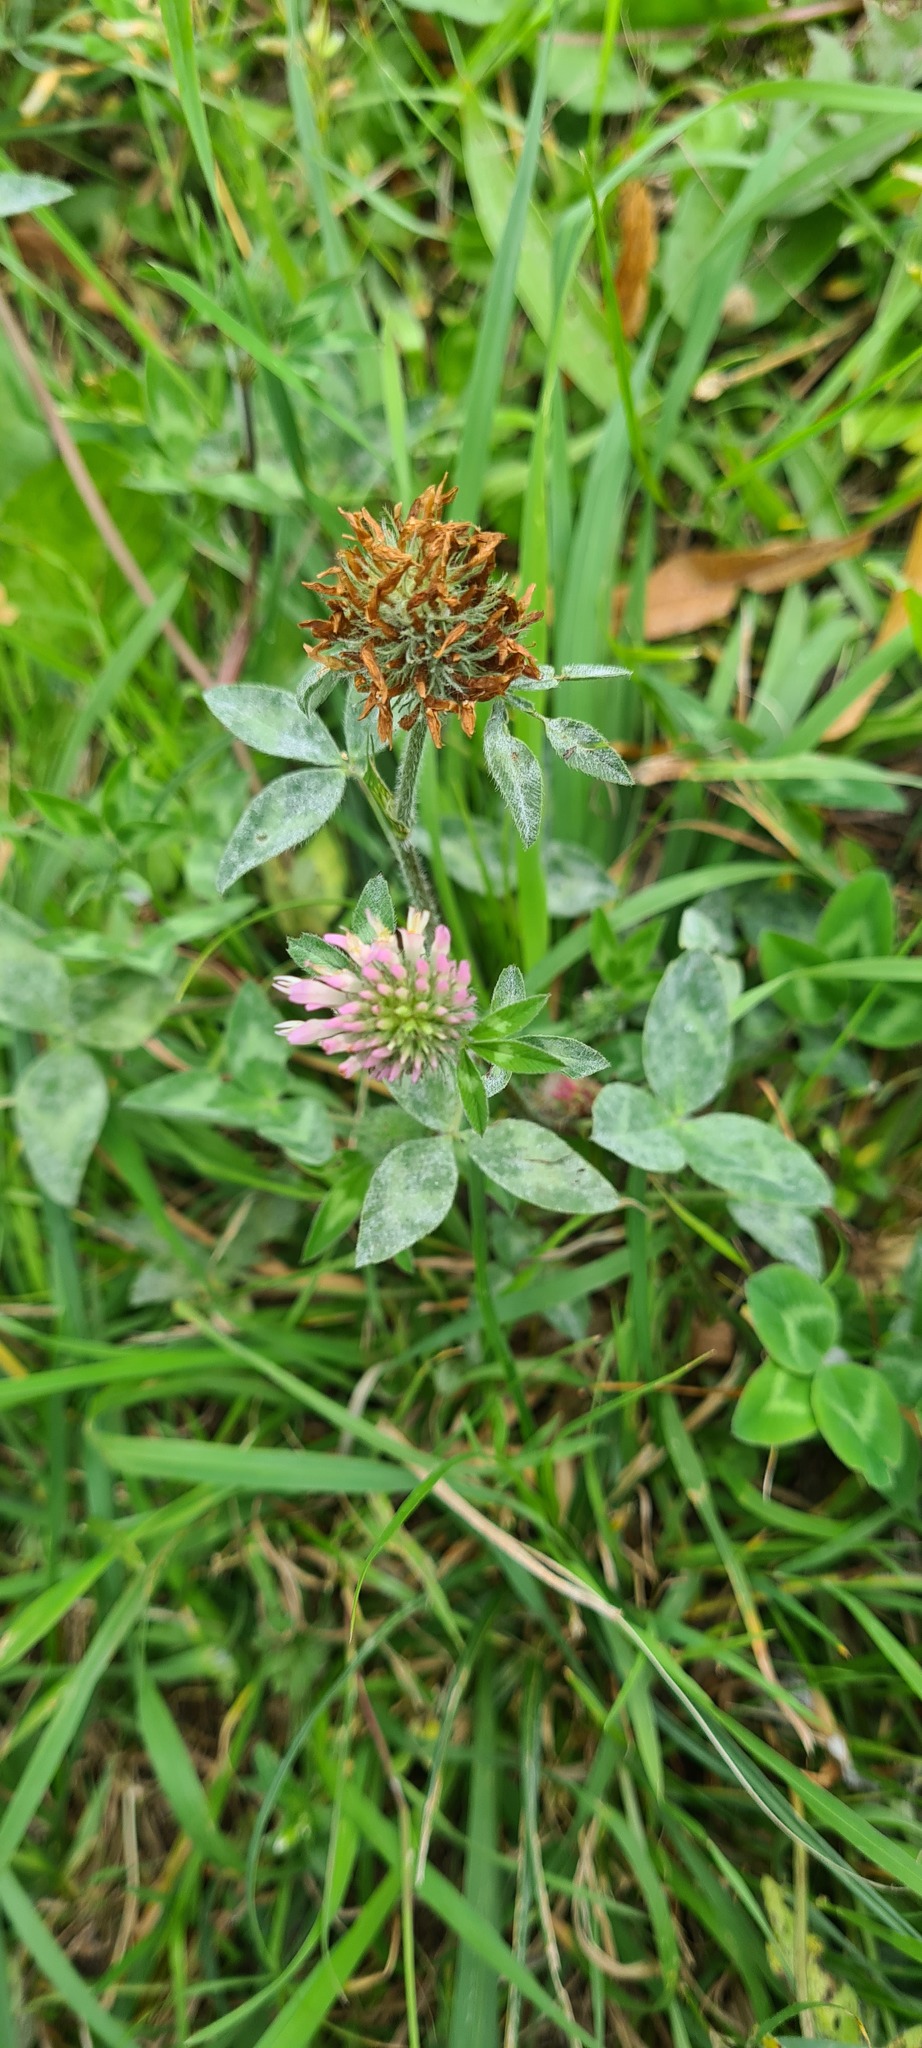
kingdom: Plantae
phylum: Tracheophyta
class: Magnoliopsida
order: Fabales
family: Fabaceae
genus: Trifolium
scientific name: Trifolium pratense
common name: Red clover
